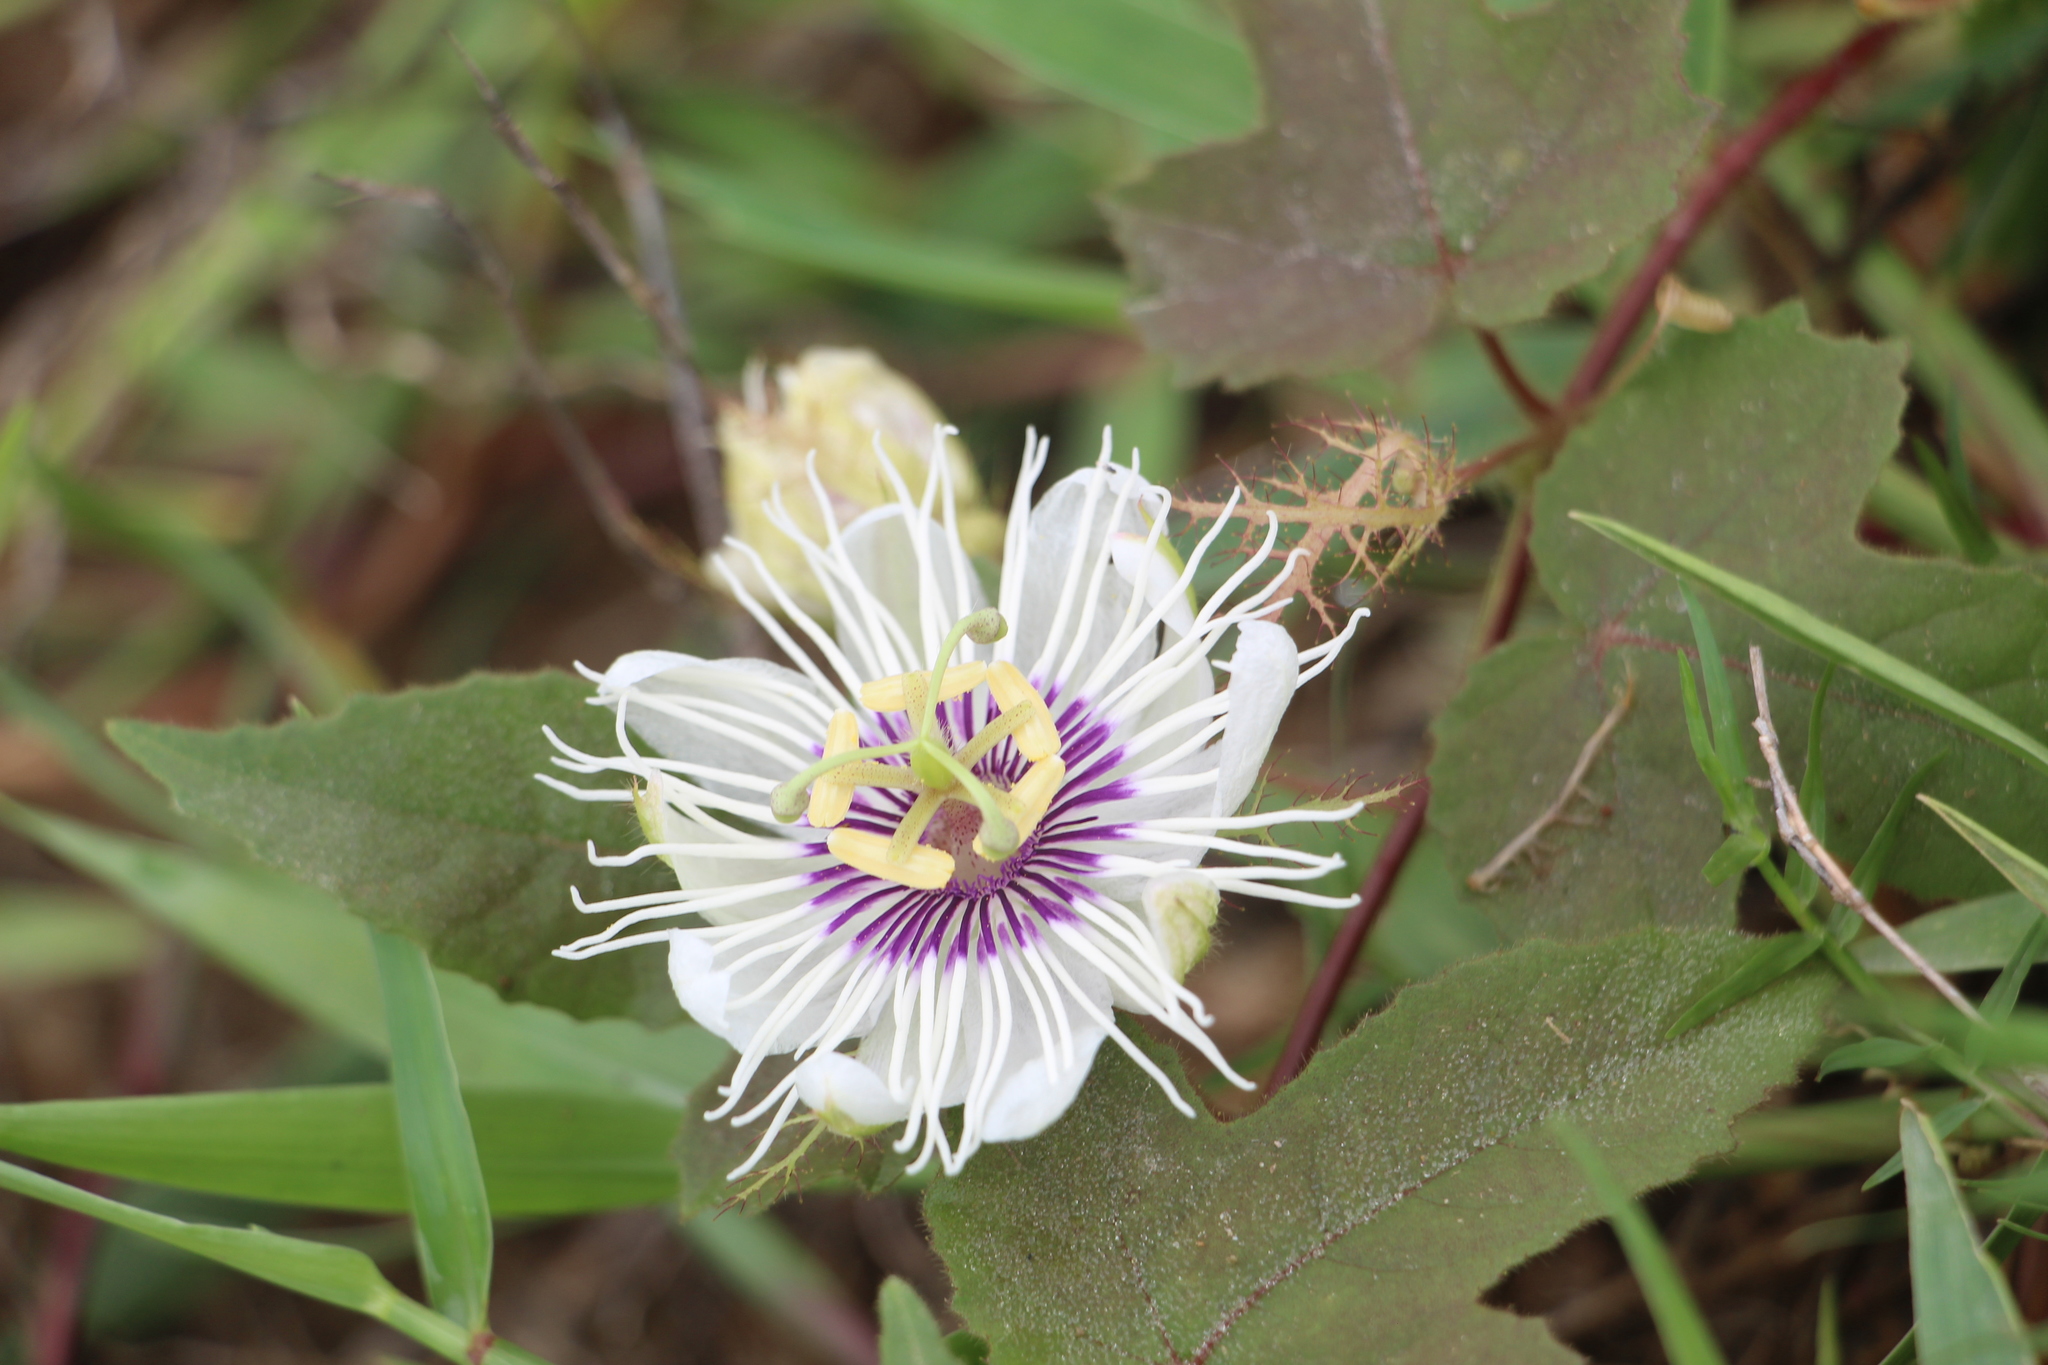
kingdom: Plantae
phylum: Tracheophyta
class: Magnoliopsida
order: Malpighiales
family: Passifloraceae
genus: Passiflora
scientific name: Passiflora foetida
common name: Fetid passionflower
